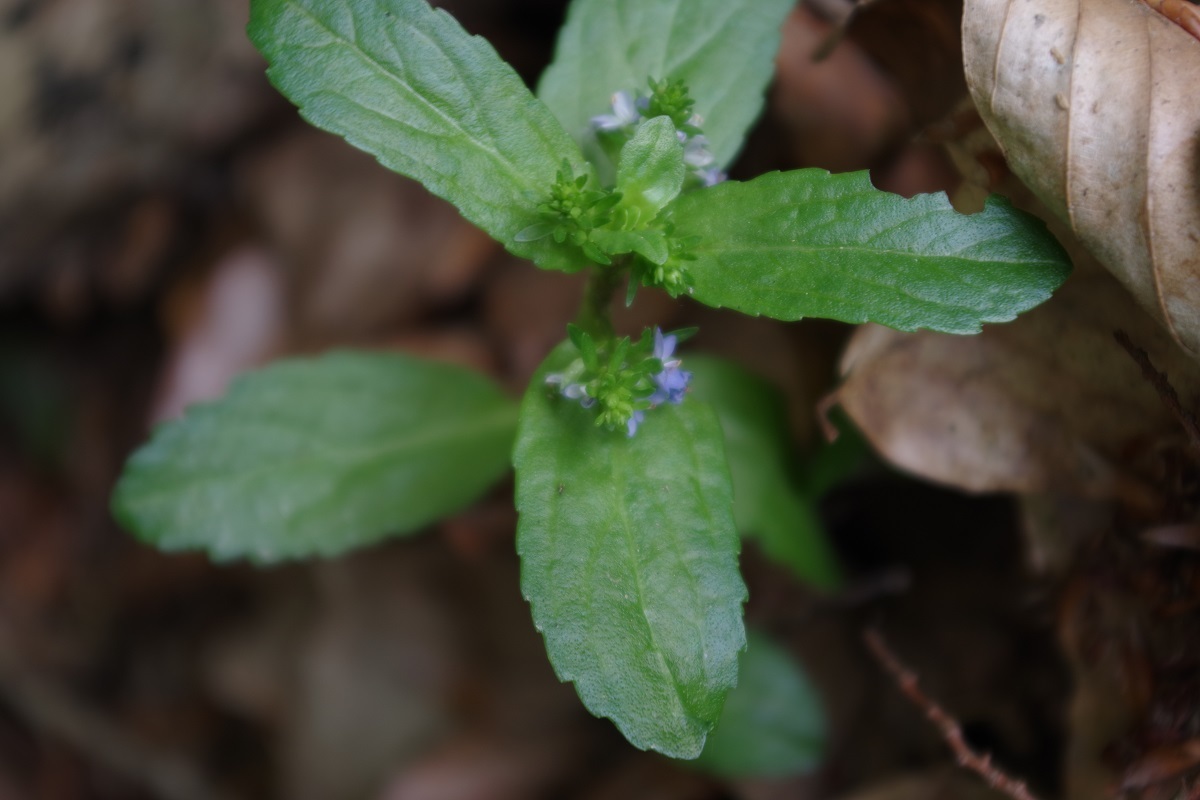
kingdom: Plantae
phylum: Tracheophyta
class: Magnoliopsida
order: Lamiales
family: Plantaginaceae
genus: Veronica
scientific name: Veronica beccabunga
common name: Brooklime
